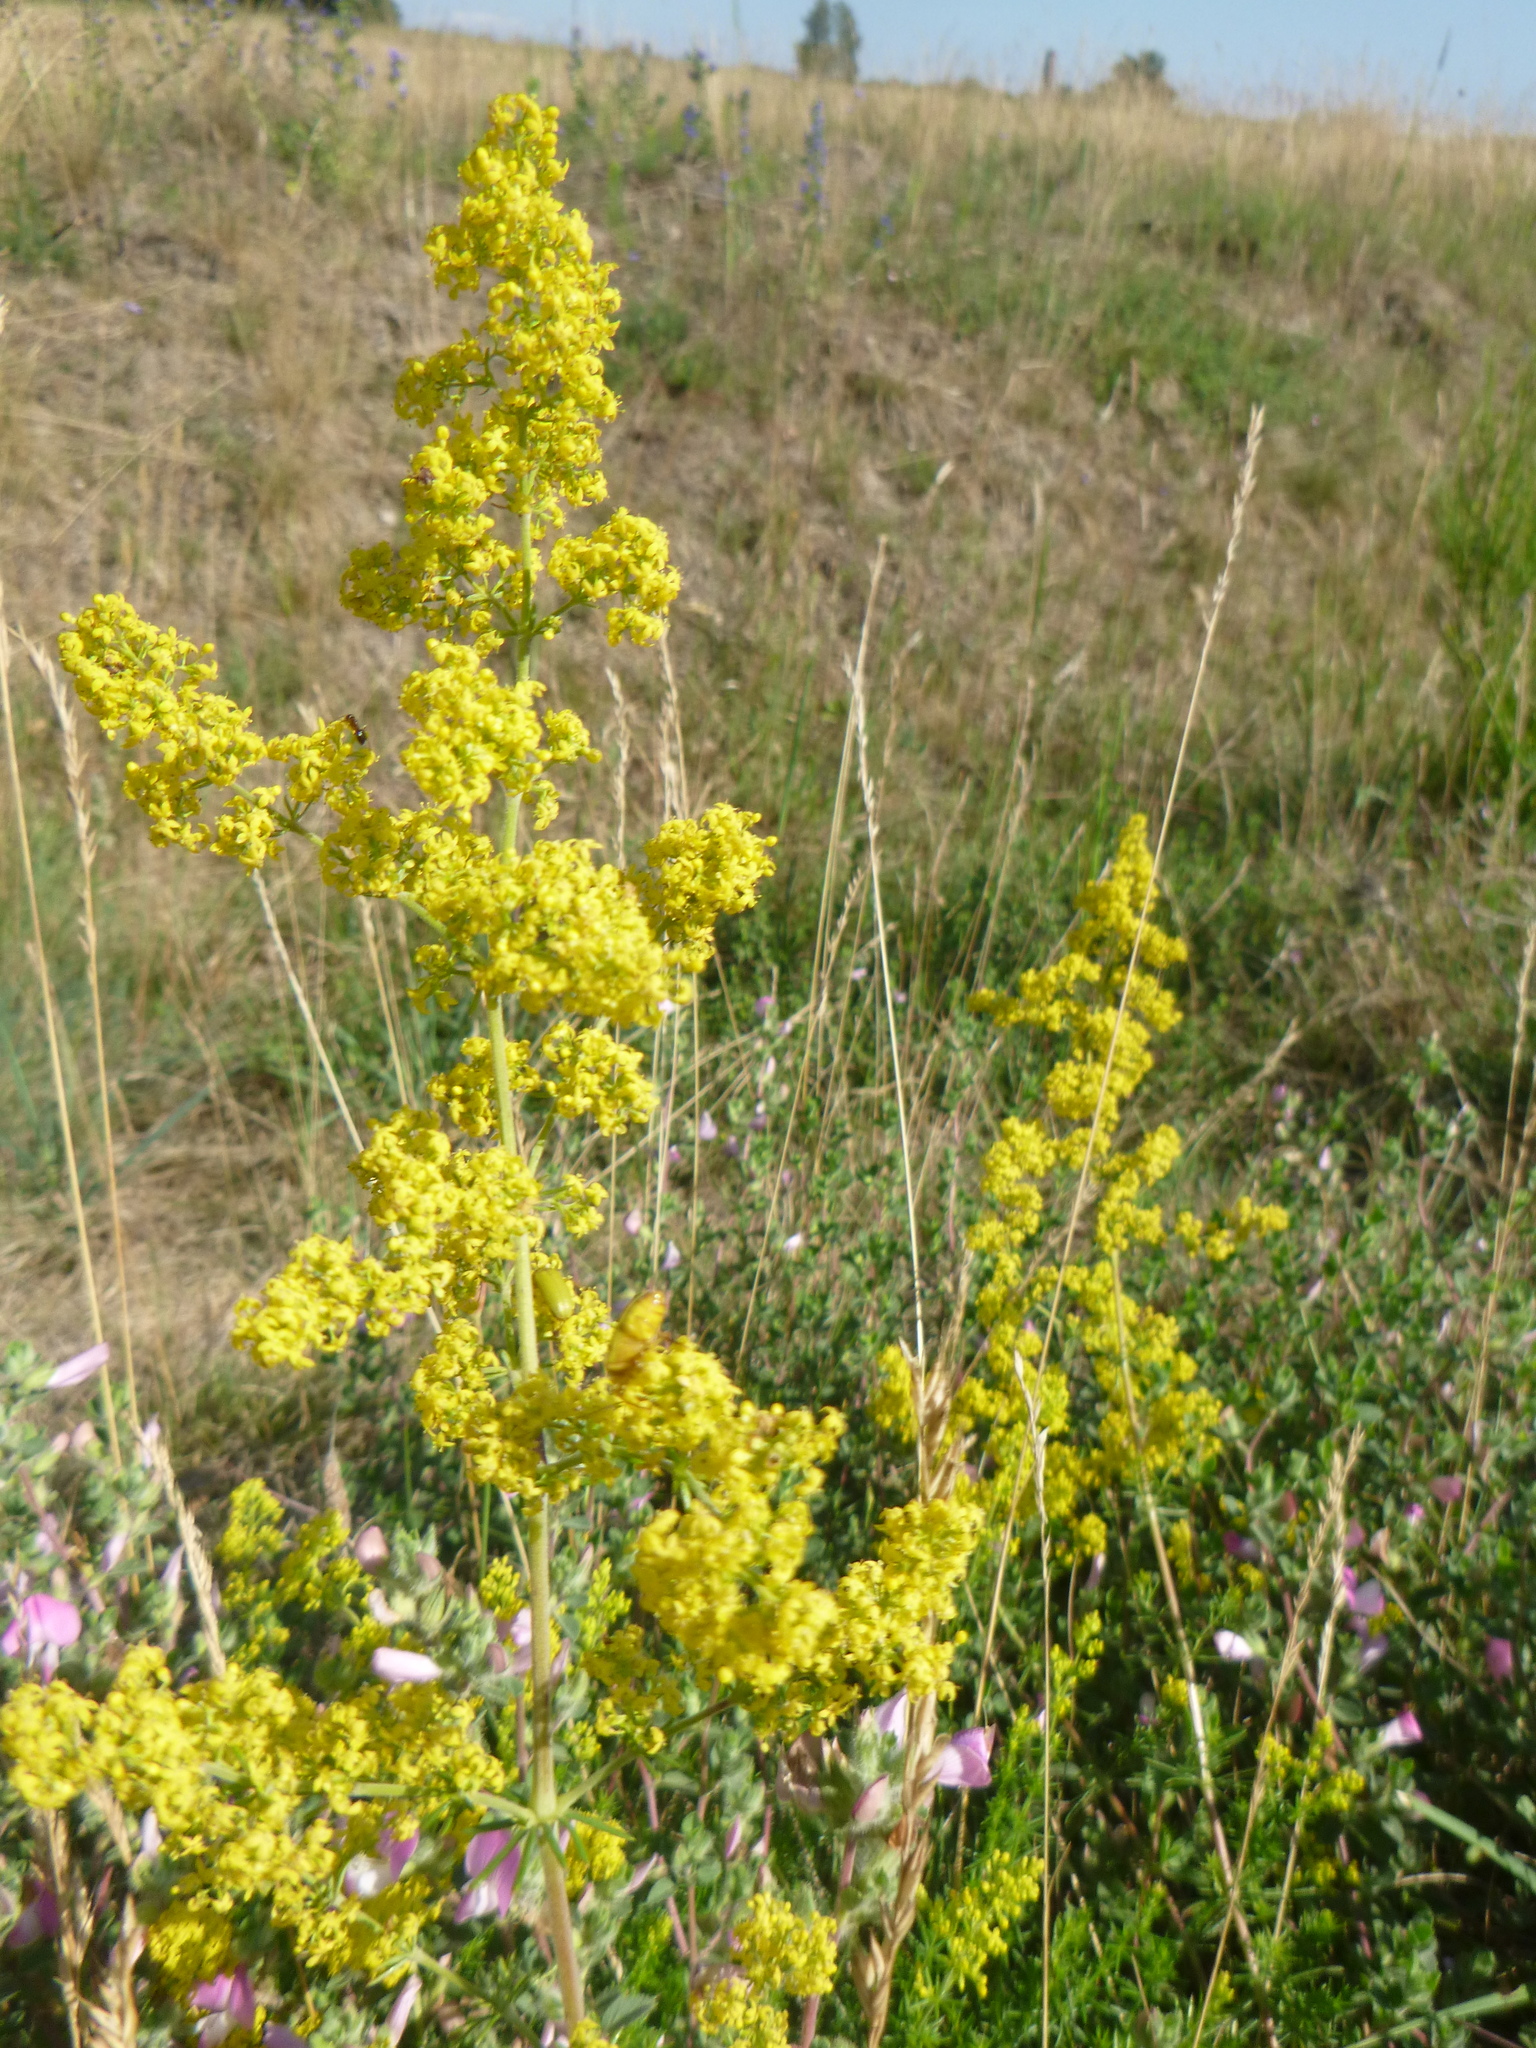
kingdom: Plantae
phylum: Tracheophyta
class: Magnoliopsida
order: Gentianales
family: Rubiaceae
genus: Galium
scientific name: Galium verum
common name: Lady's bedstraw
